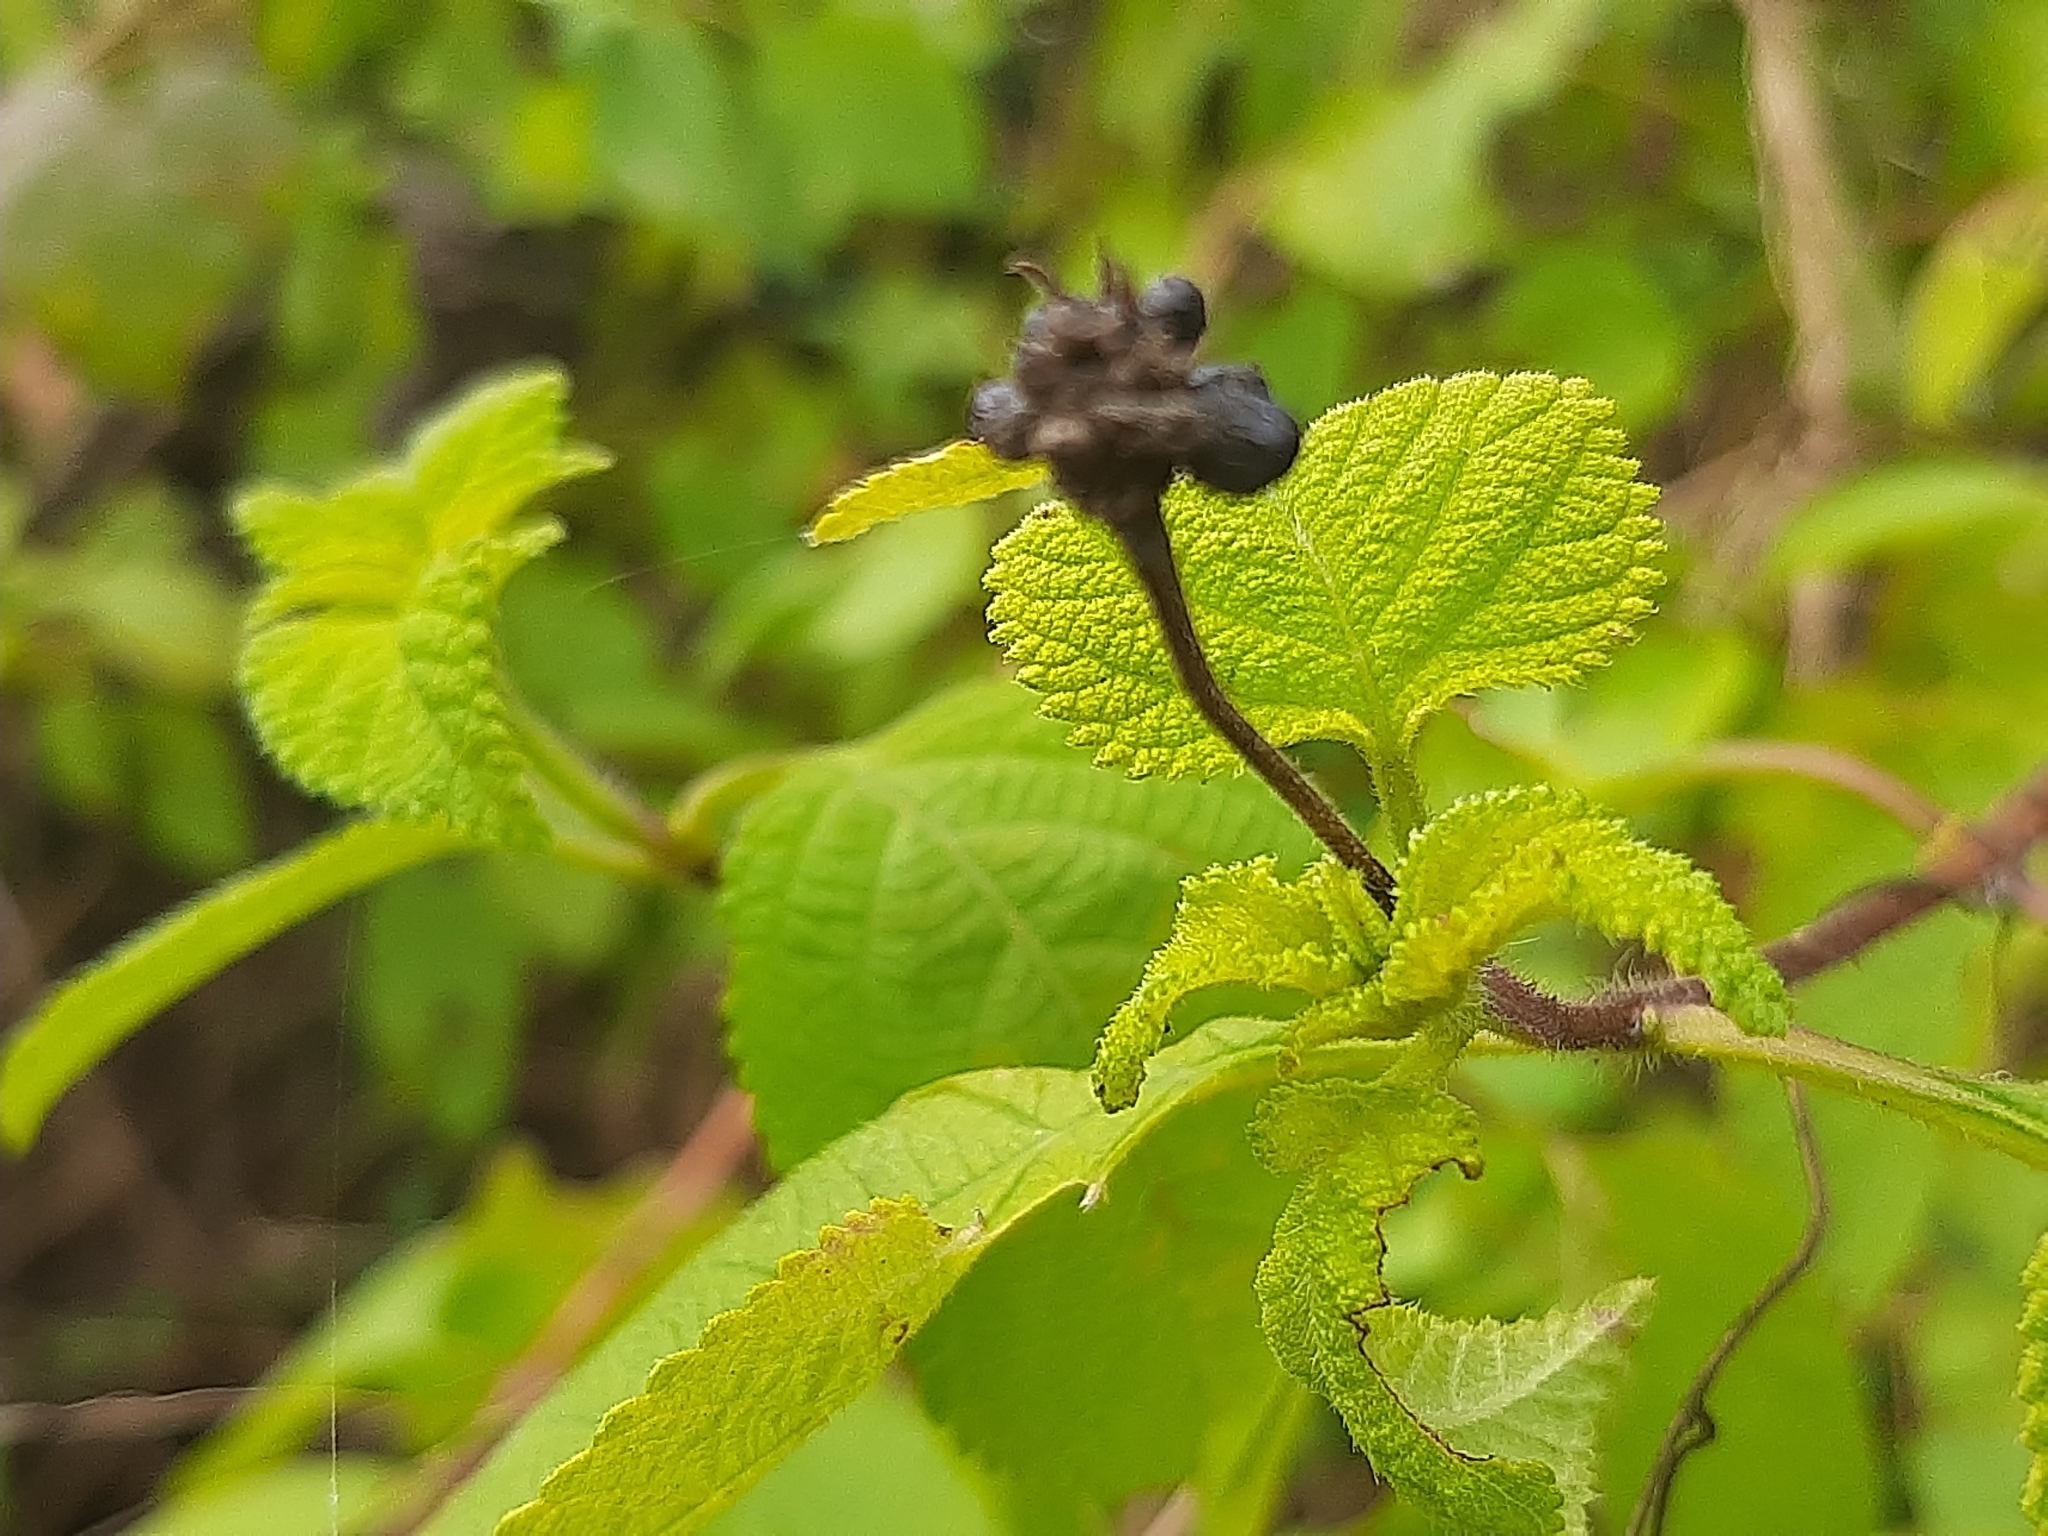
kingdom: Plantae
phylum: Tracheophyta
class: Magnoliopsida
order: Lamiales
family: Verbenaceae
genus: Lantana
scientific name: Lantana camara
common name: Lantana
